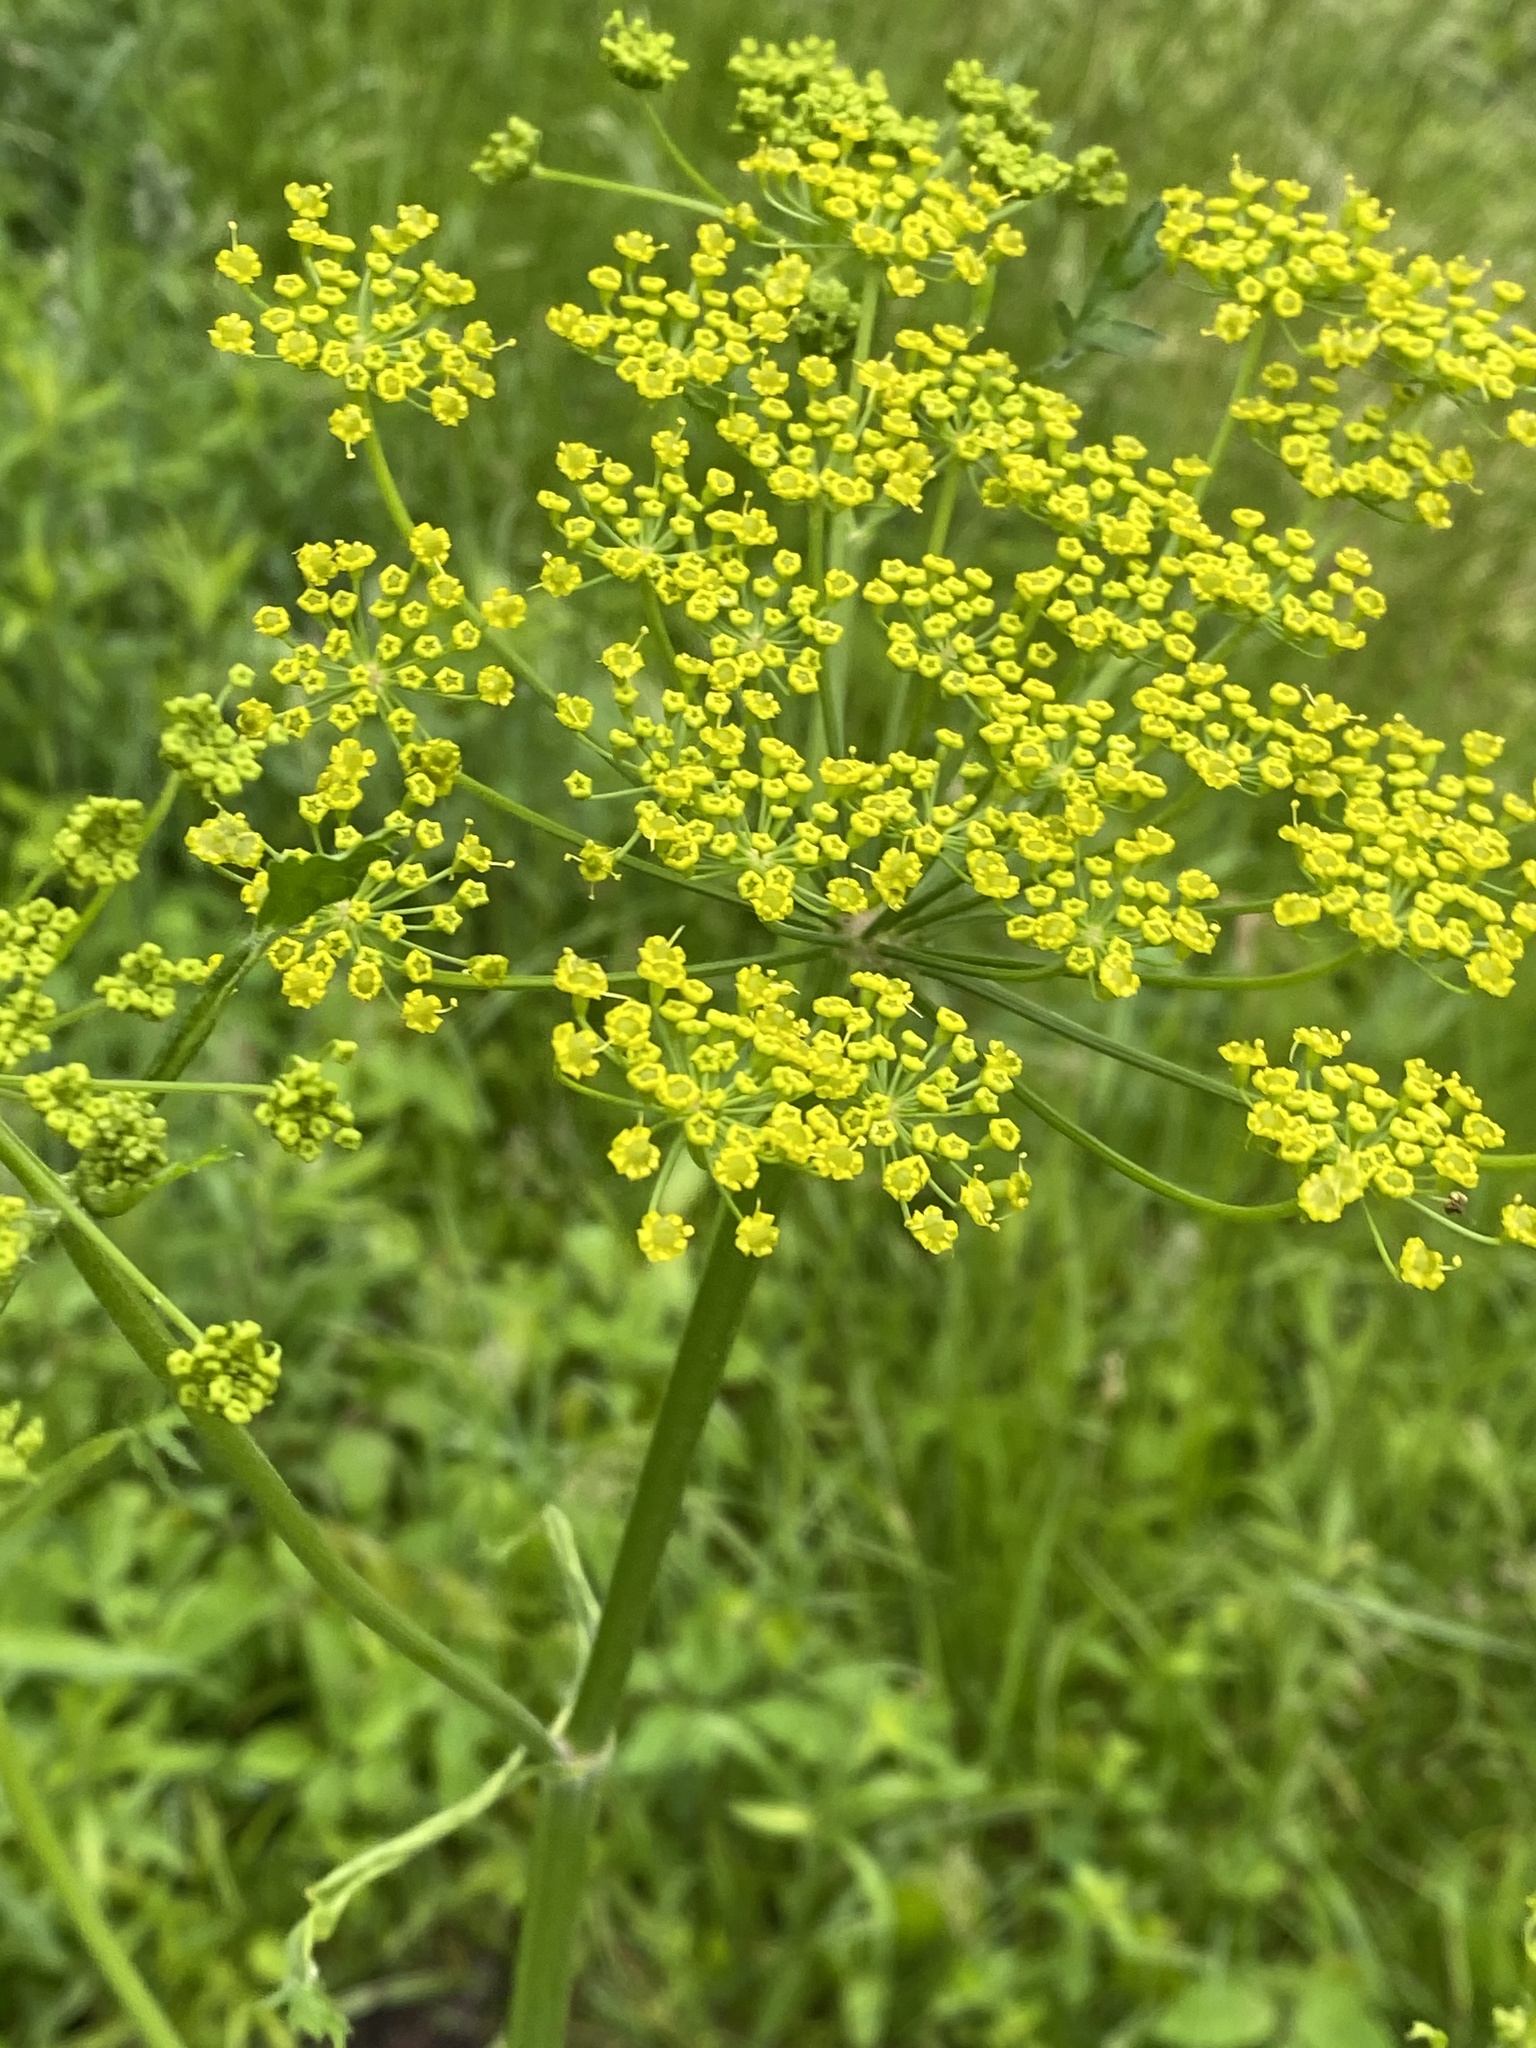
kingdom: Plantae
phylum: Tracheophyta
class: Magnoliopsida
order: Apiales
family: Apiaceae
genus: Pastinaca
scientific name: Pastinaca sativa
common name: Wild parsnip
